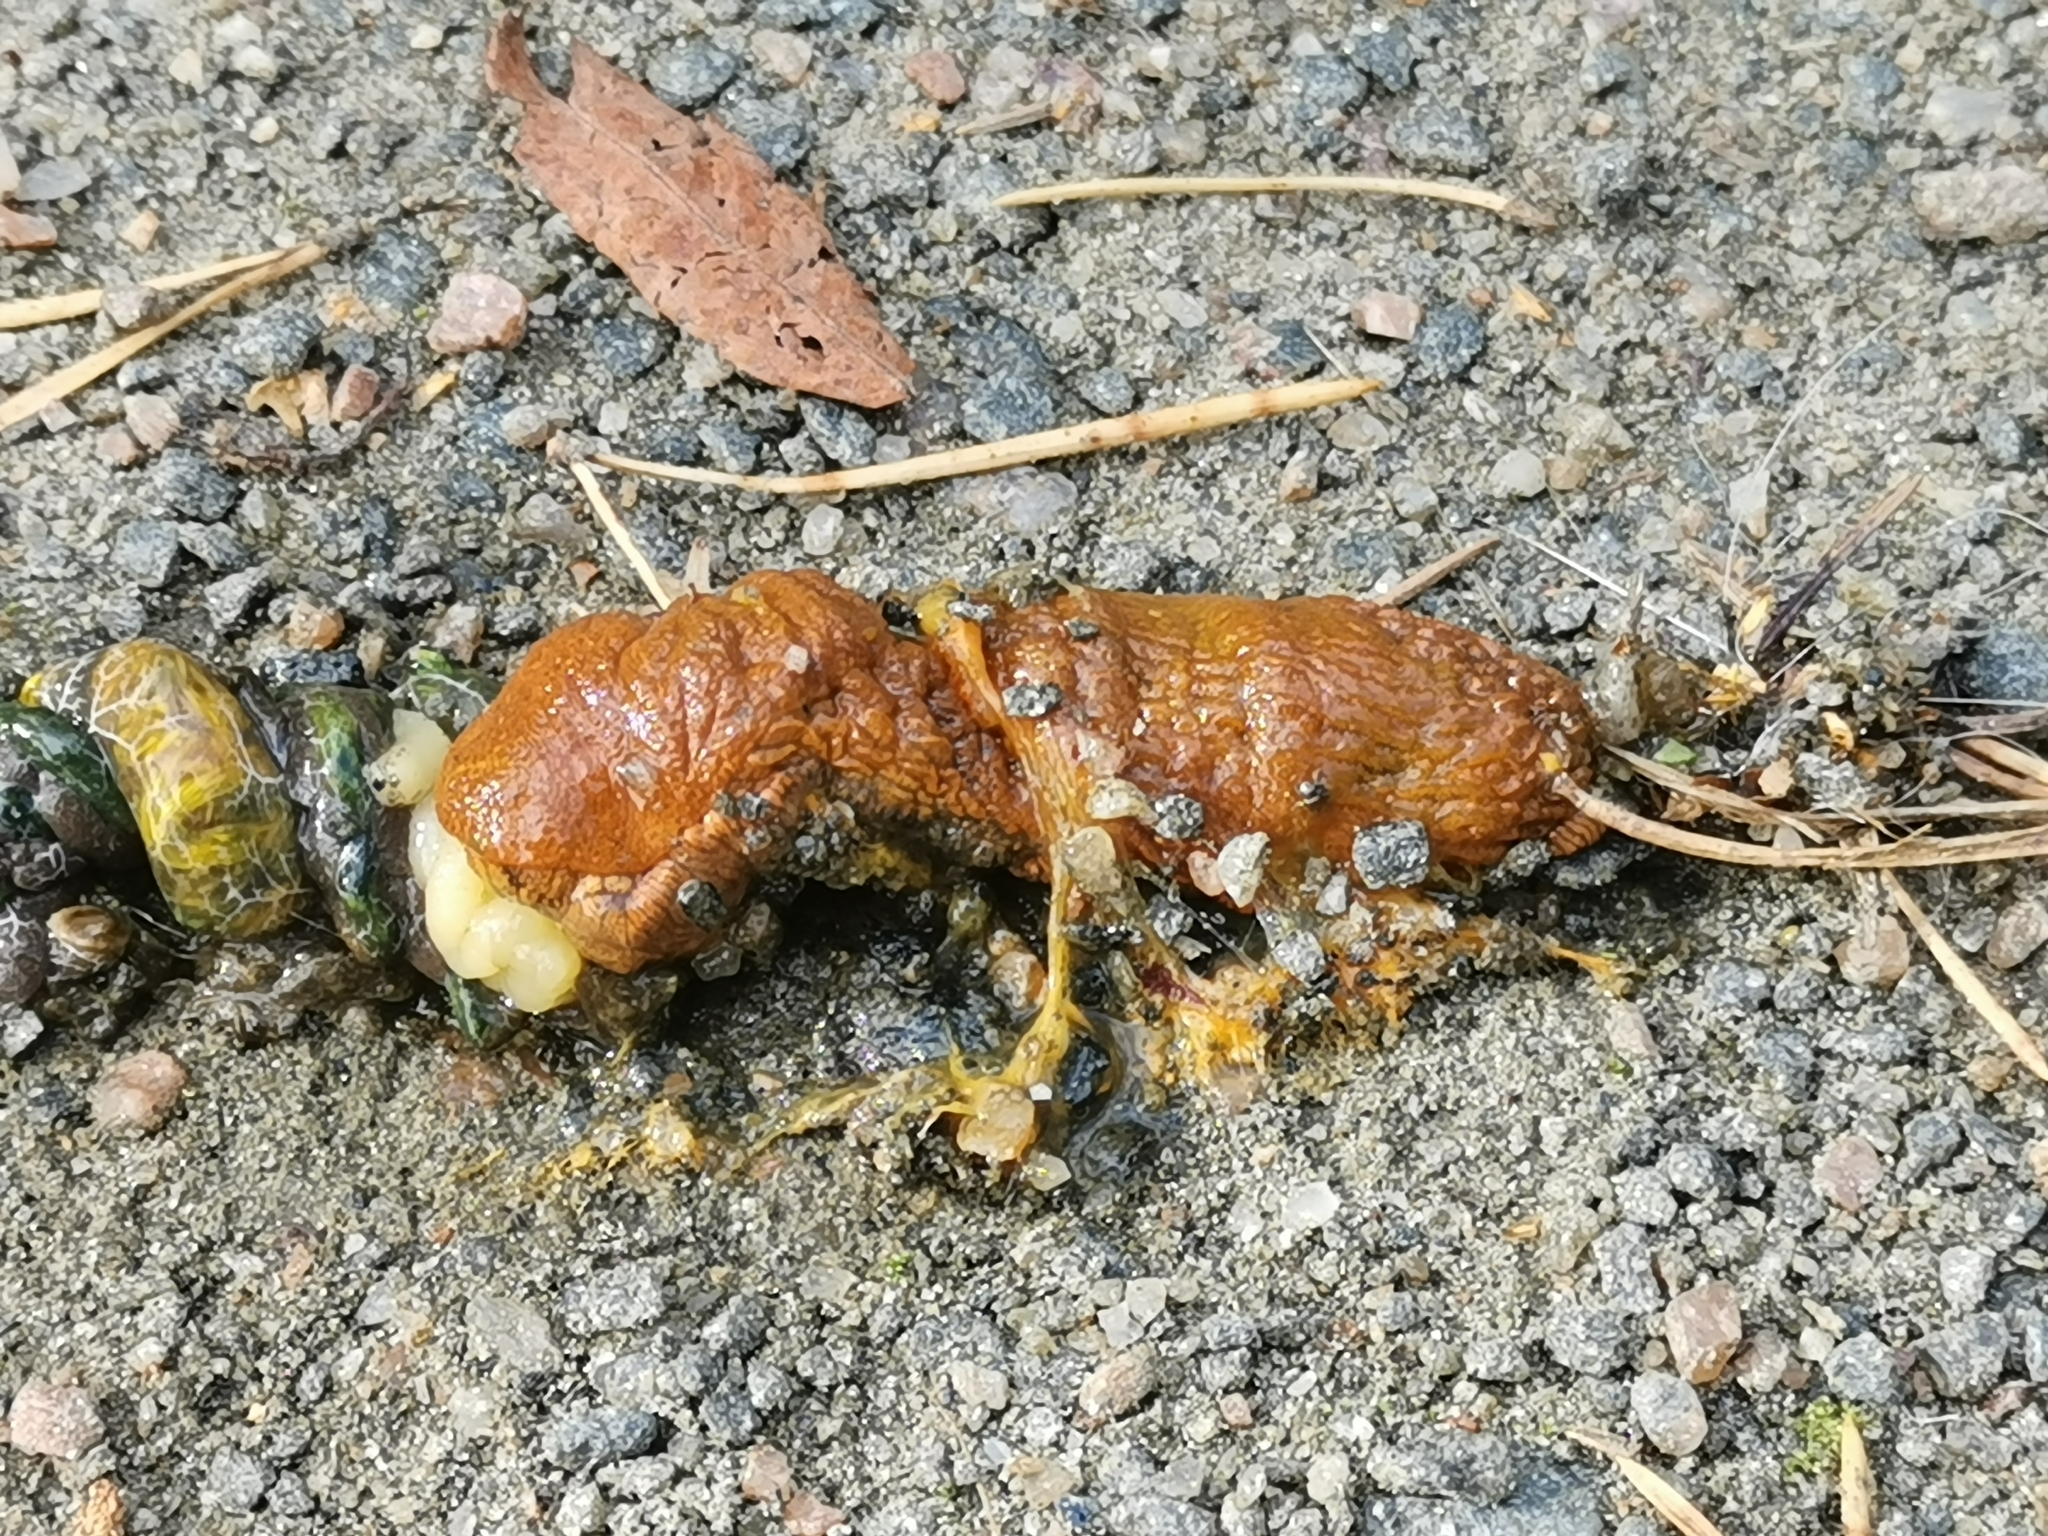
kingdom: Animalia
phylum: Mollusca
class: Gastropoda
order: Stylommatophora
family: Arionidae
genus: Arion
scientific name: Arion vulgaris
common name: Lusitanian slug
